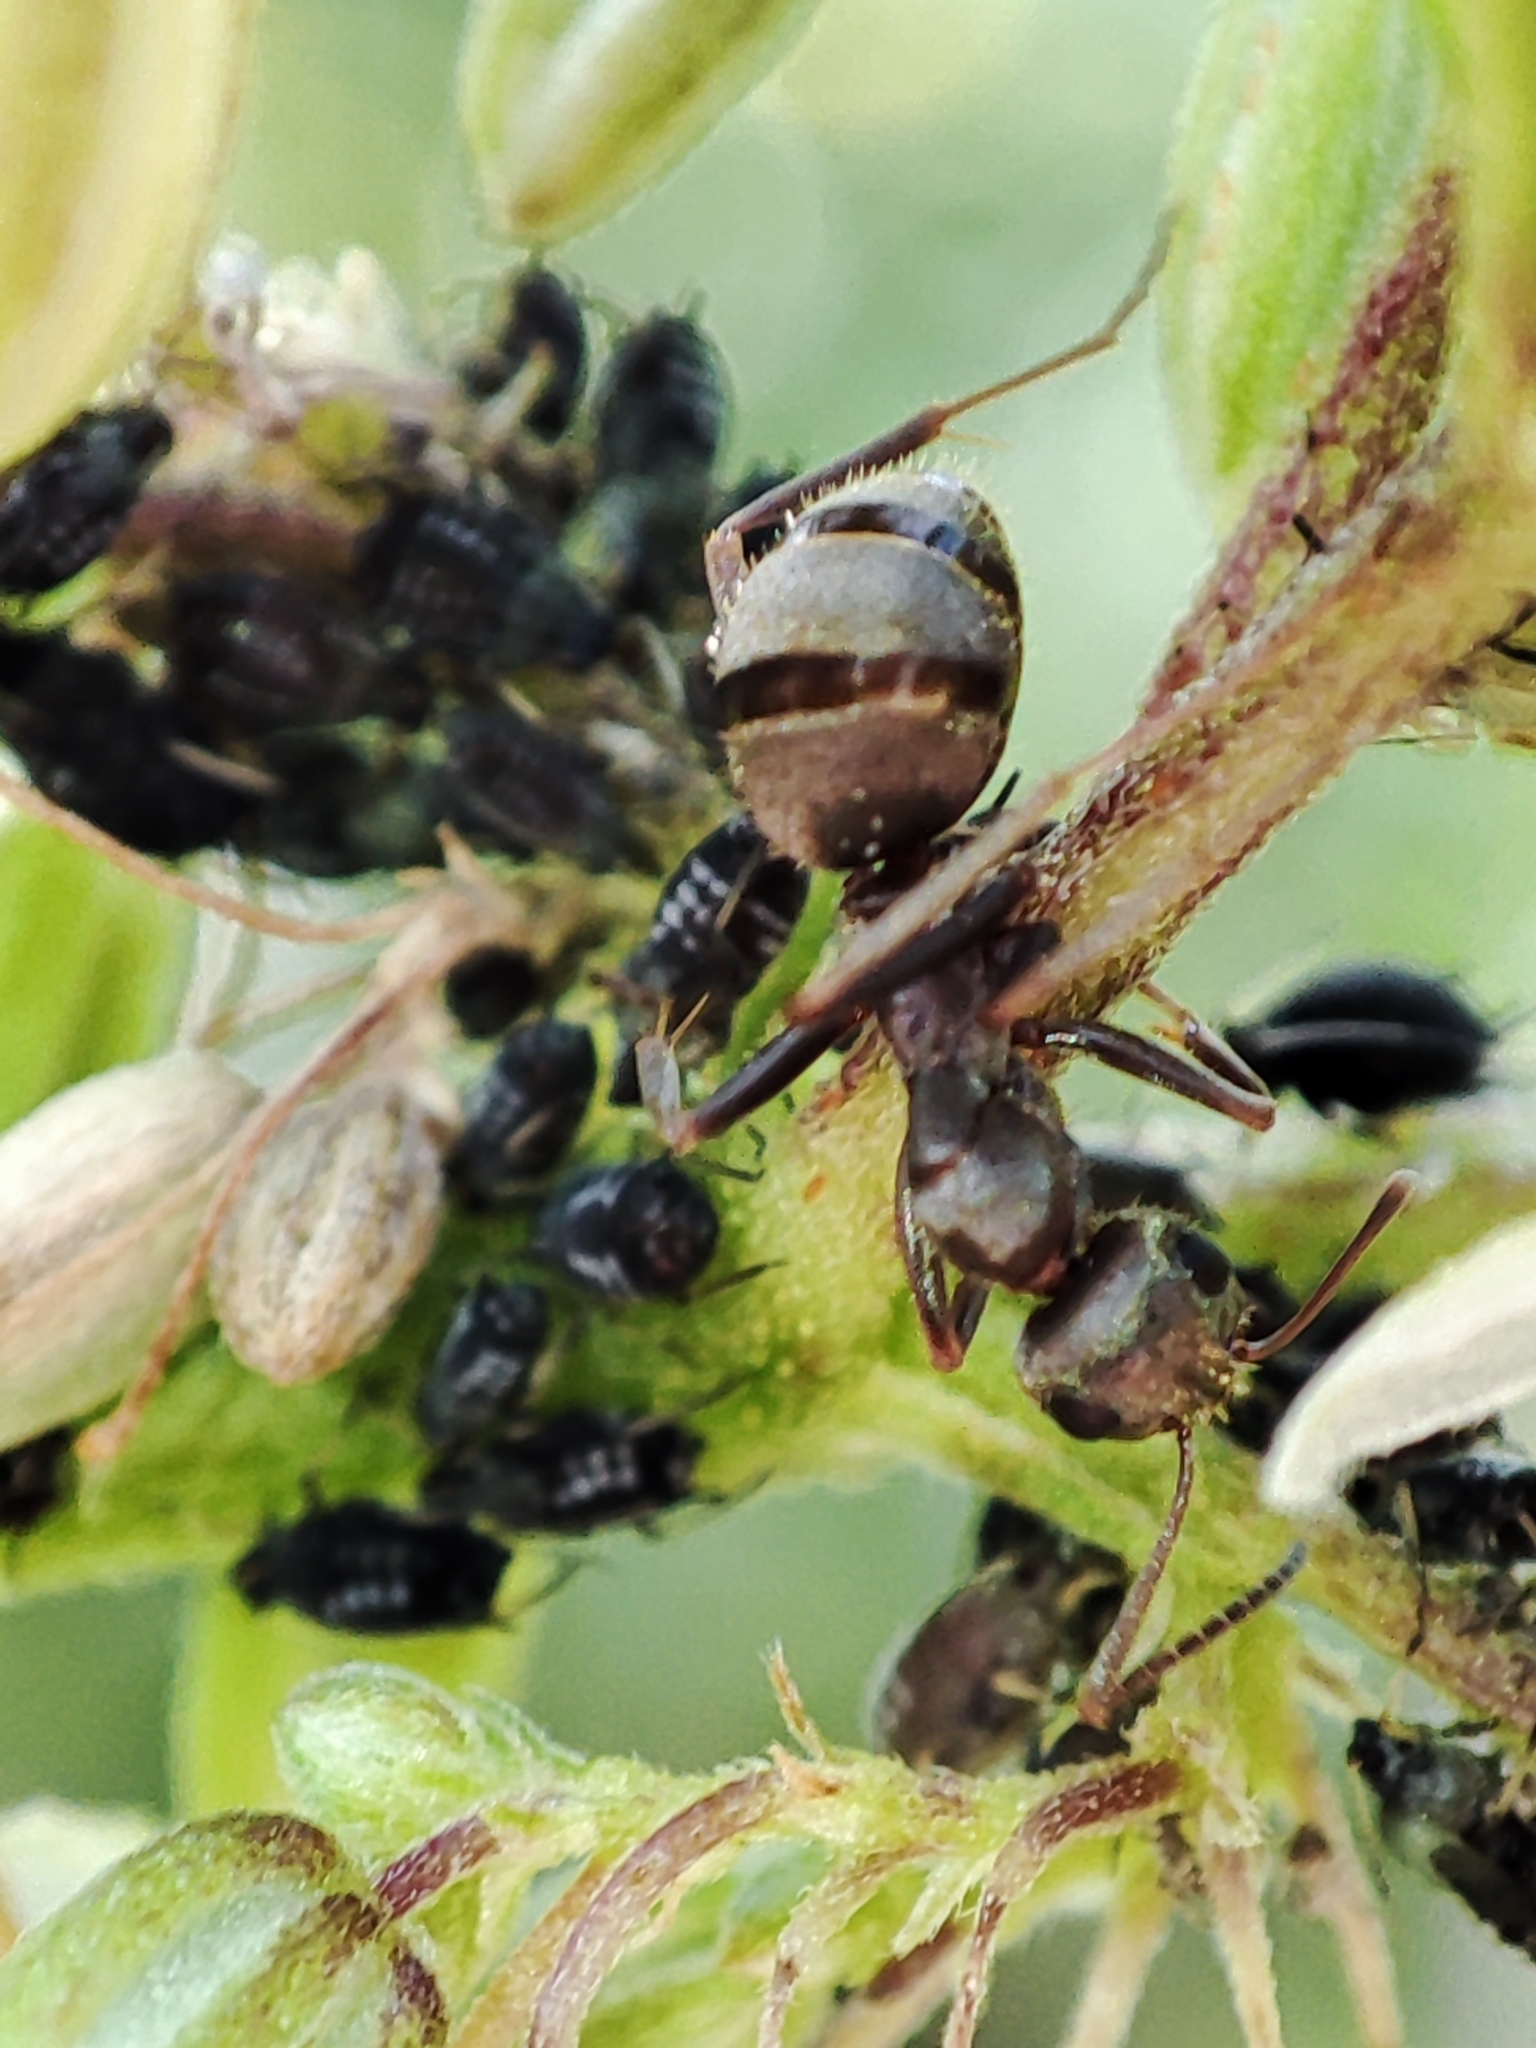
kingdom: Animalia
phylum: Arthropoda
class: Insecta
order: Hymenoptera
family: Formicidae
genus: Formica
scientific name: Formica cinerea
